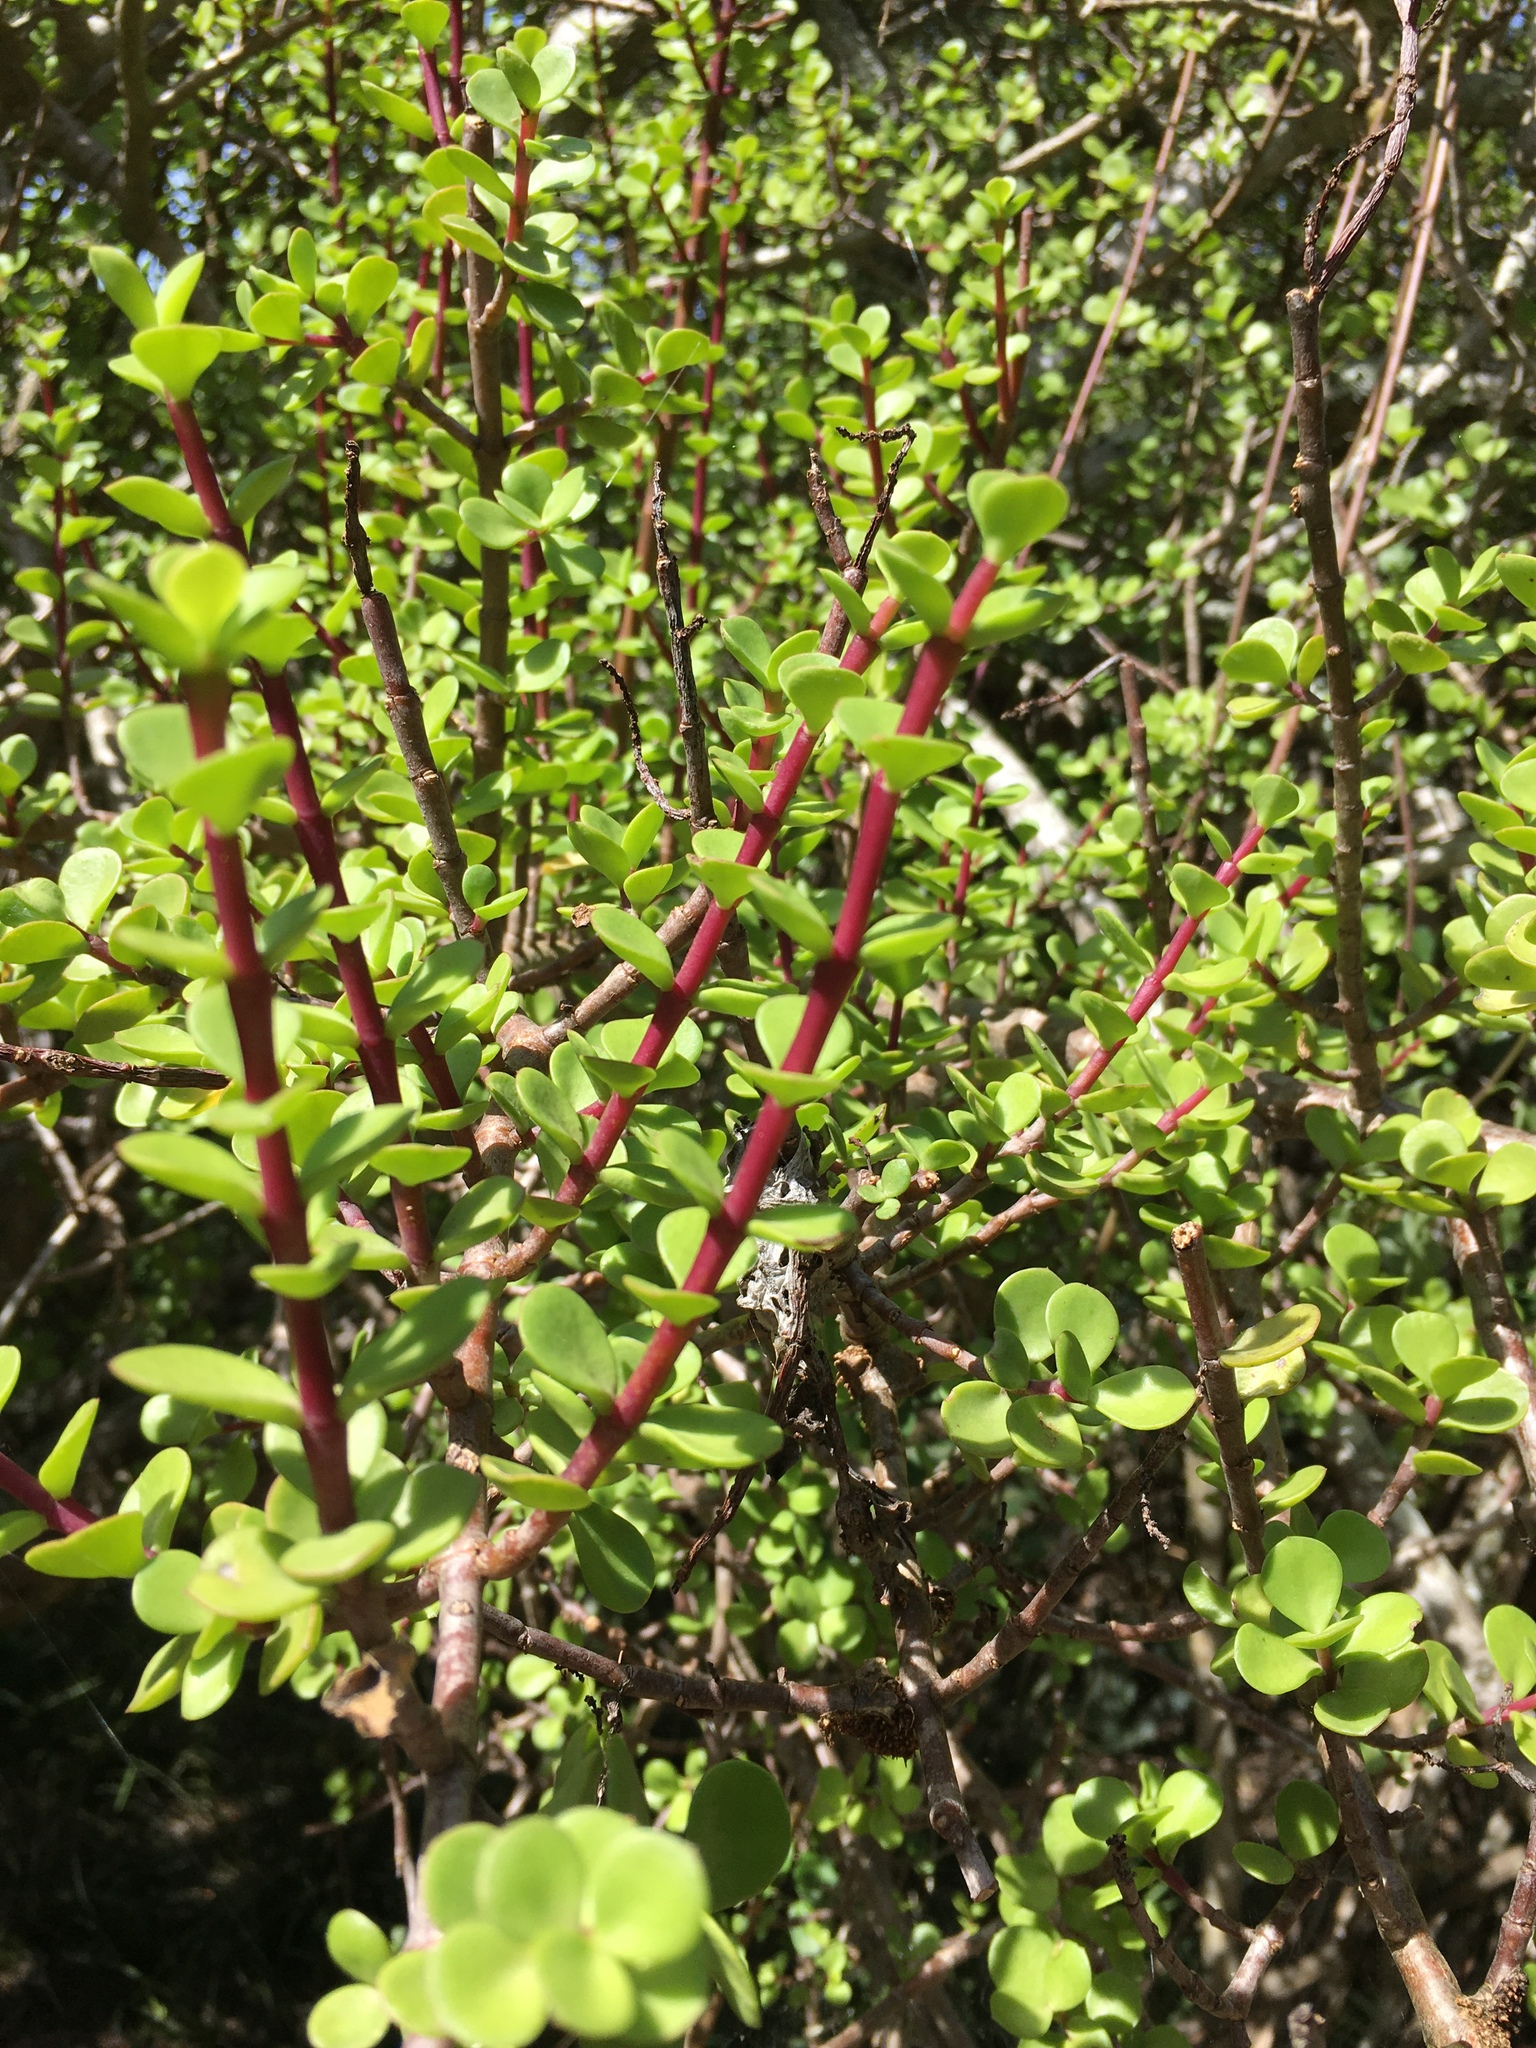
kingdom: Plantae
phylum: Tracheophyta
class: Magnoliopsida
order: Caryophyllales
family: Didiereaceae
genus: Portulacaria
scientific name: Portulacaria afra
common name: Elephant-bush
